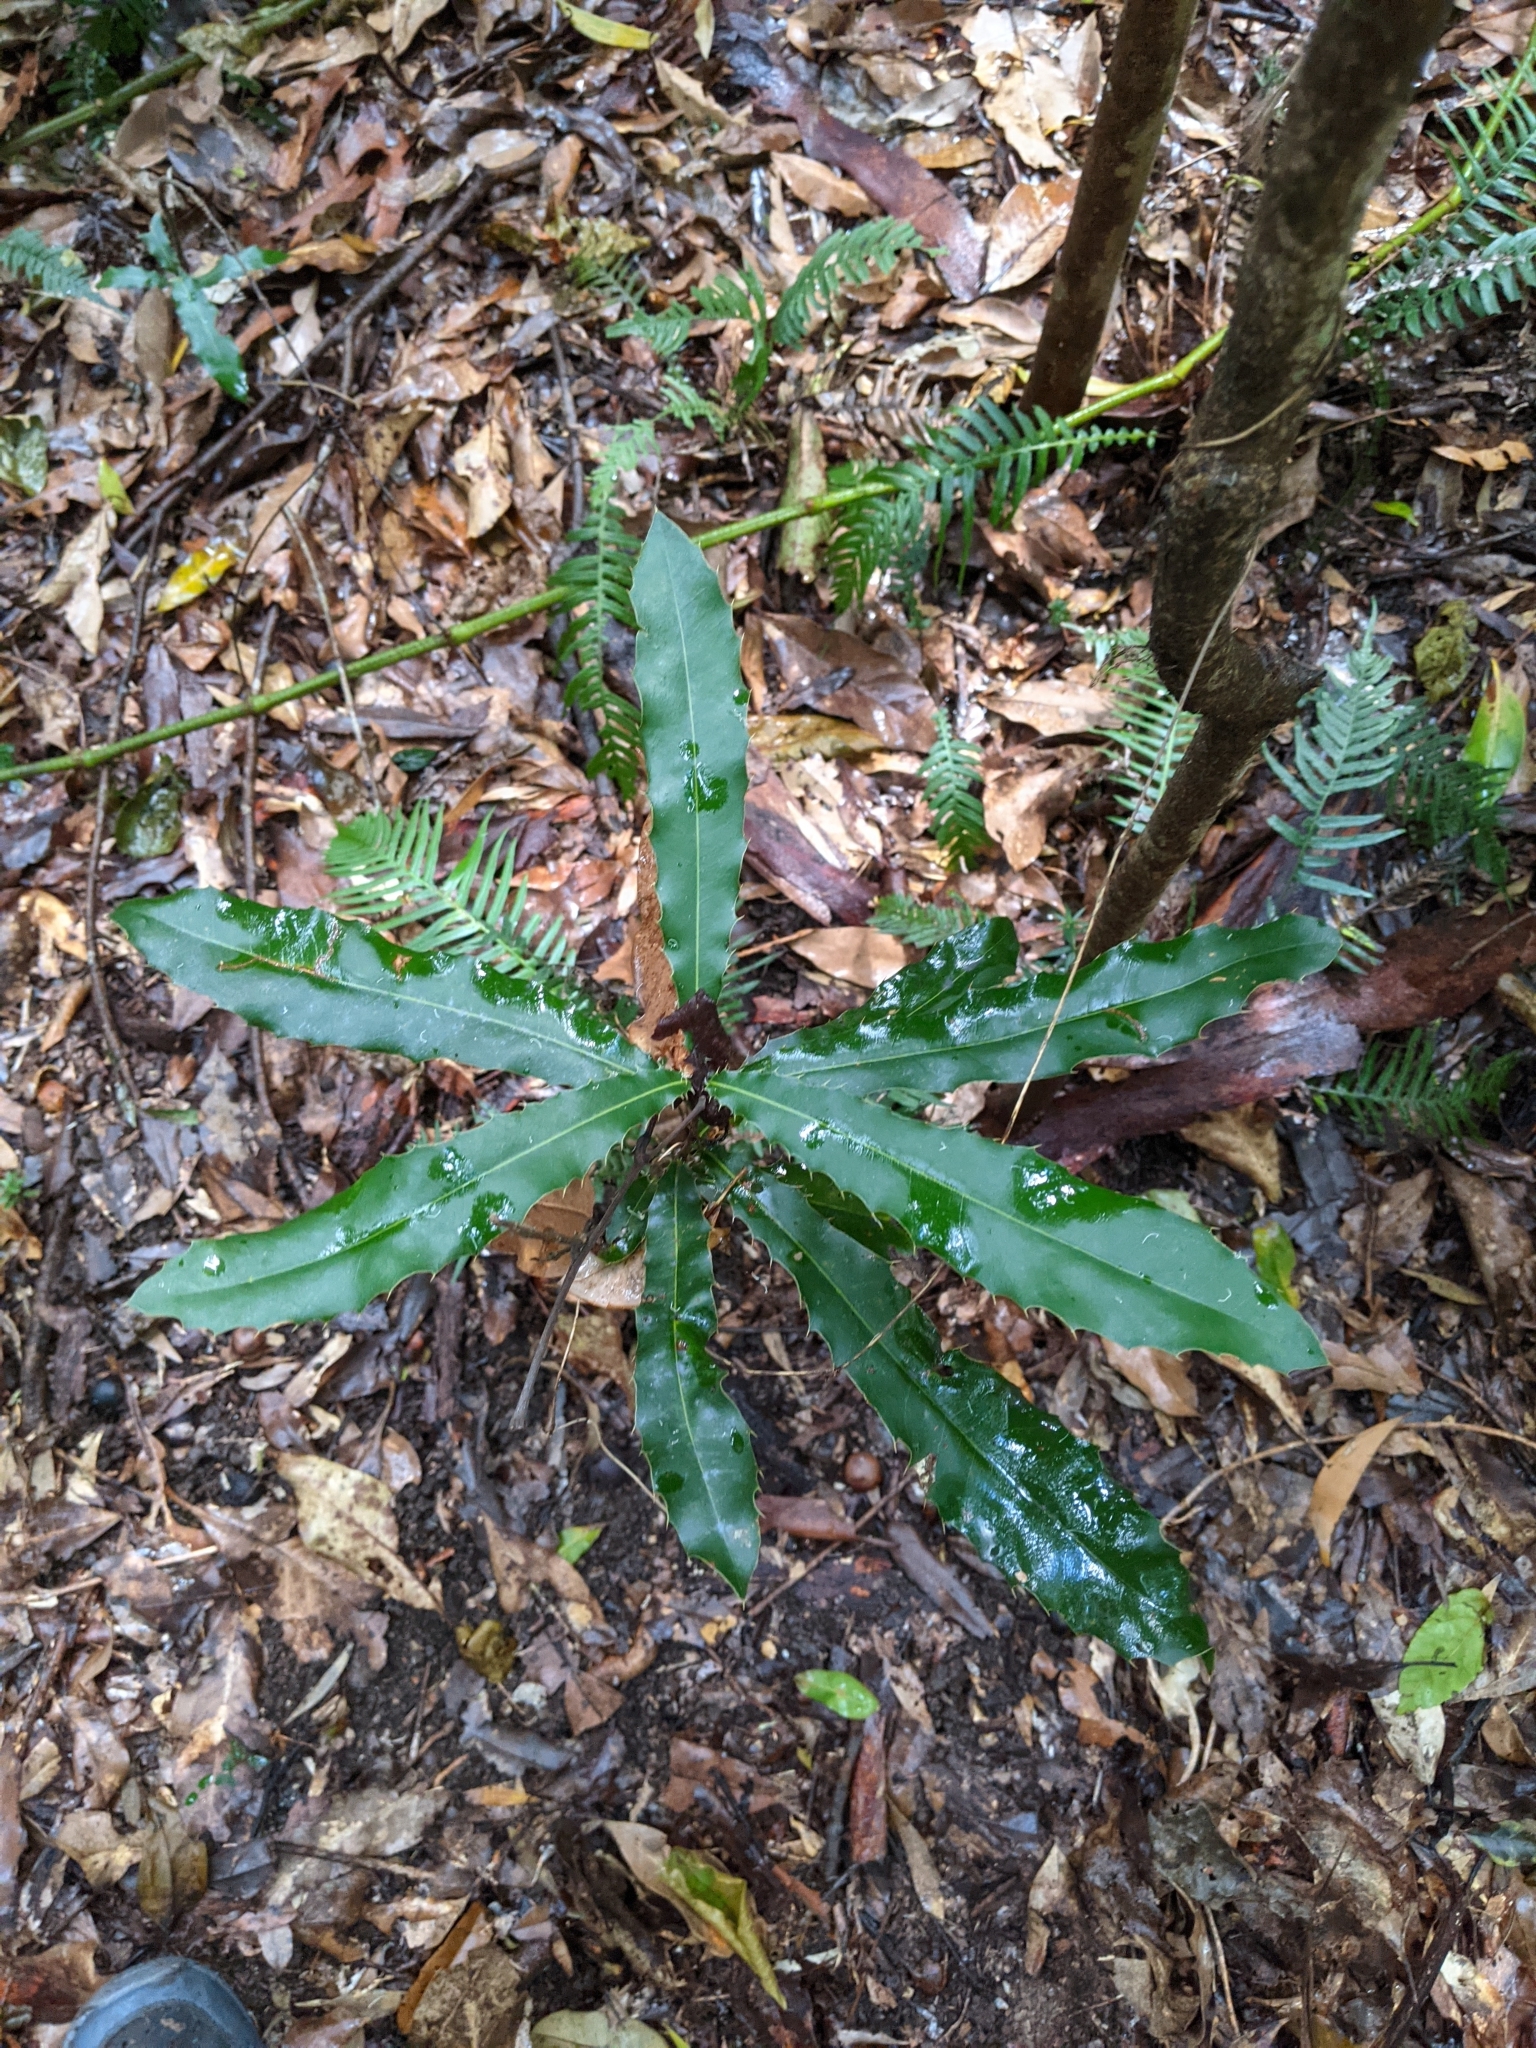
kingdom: Plantae
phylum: Tracheophyta
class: Magnoliopsida
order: Proteales
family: Proteaceae
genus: Macadamia
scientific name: Macadamia integrifolia
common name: Macadamia
